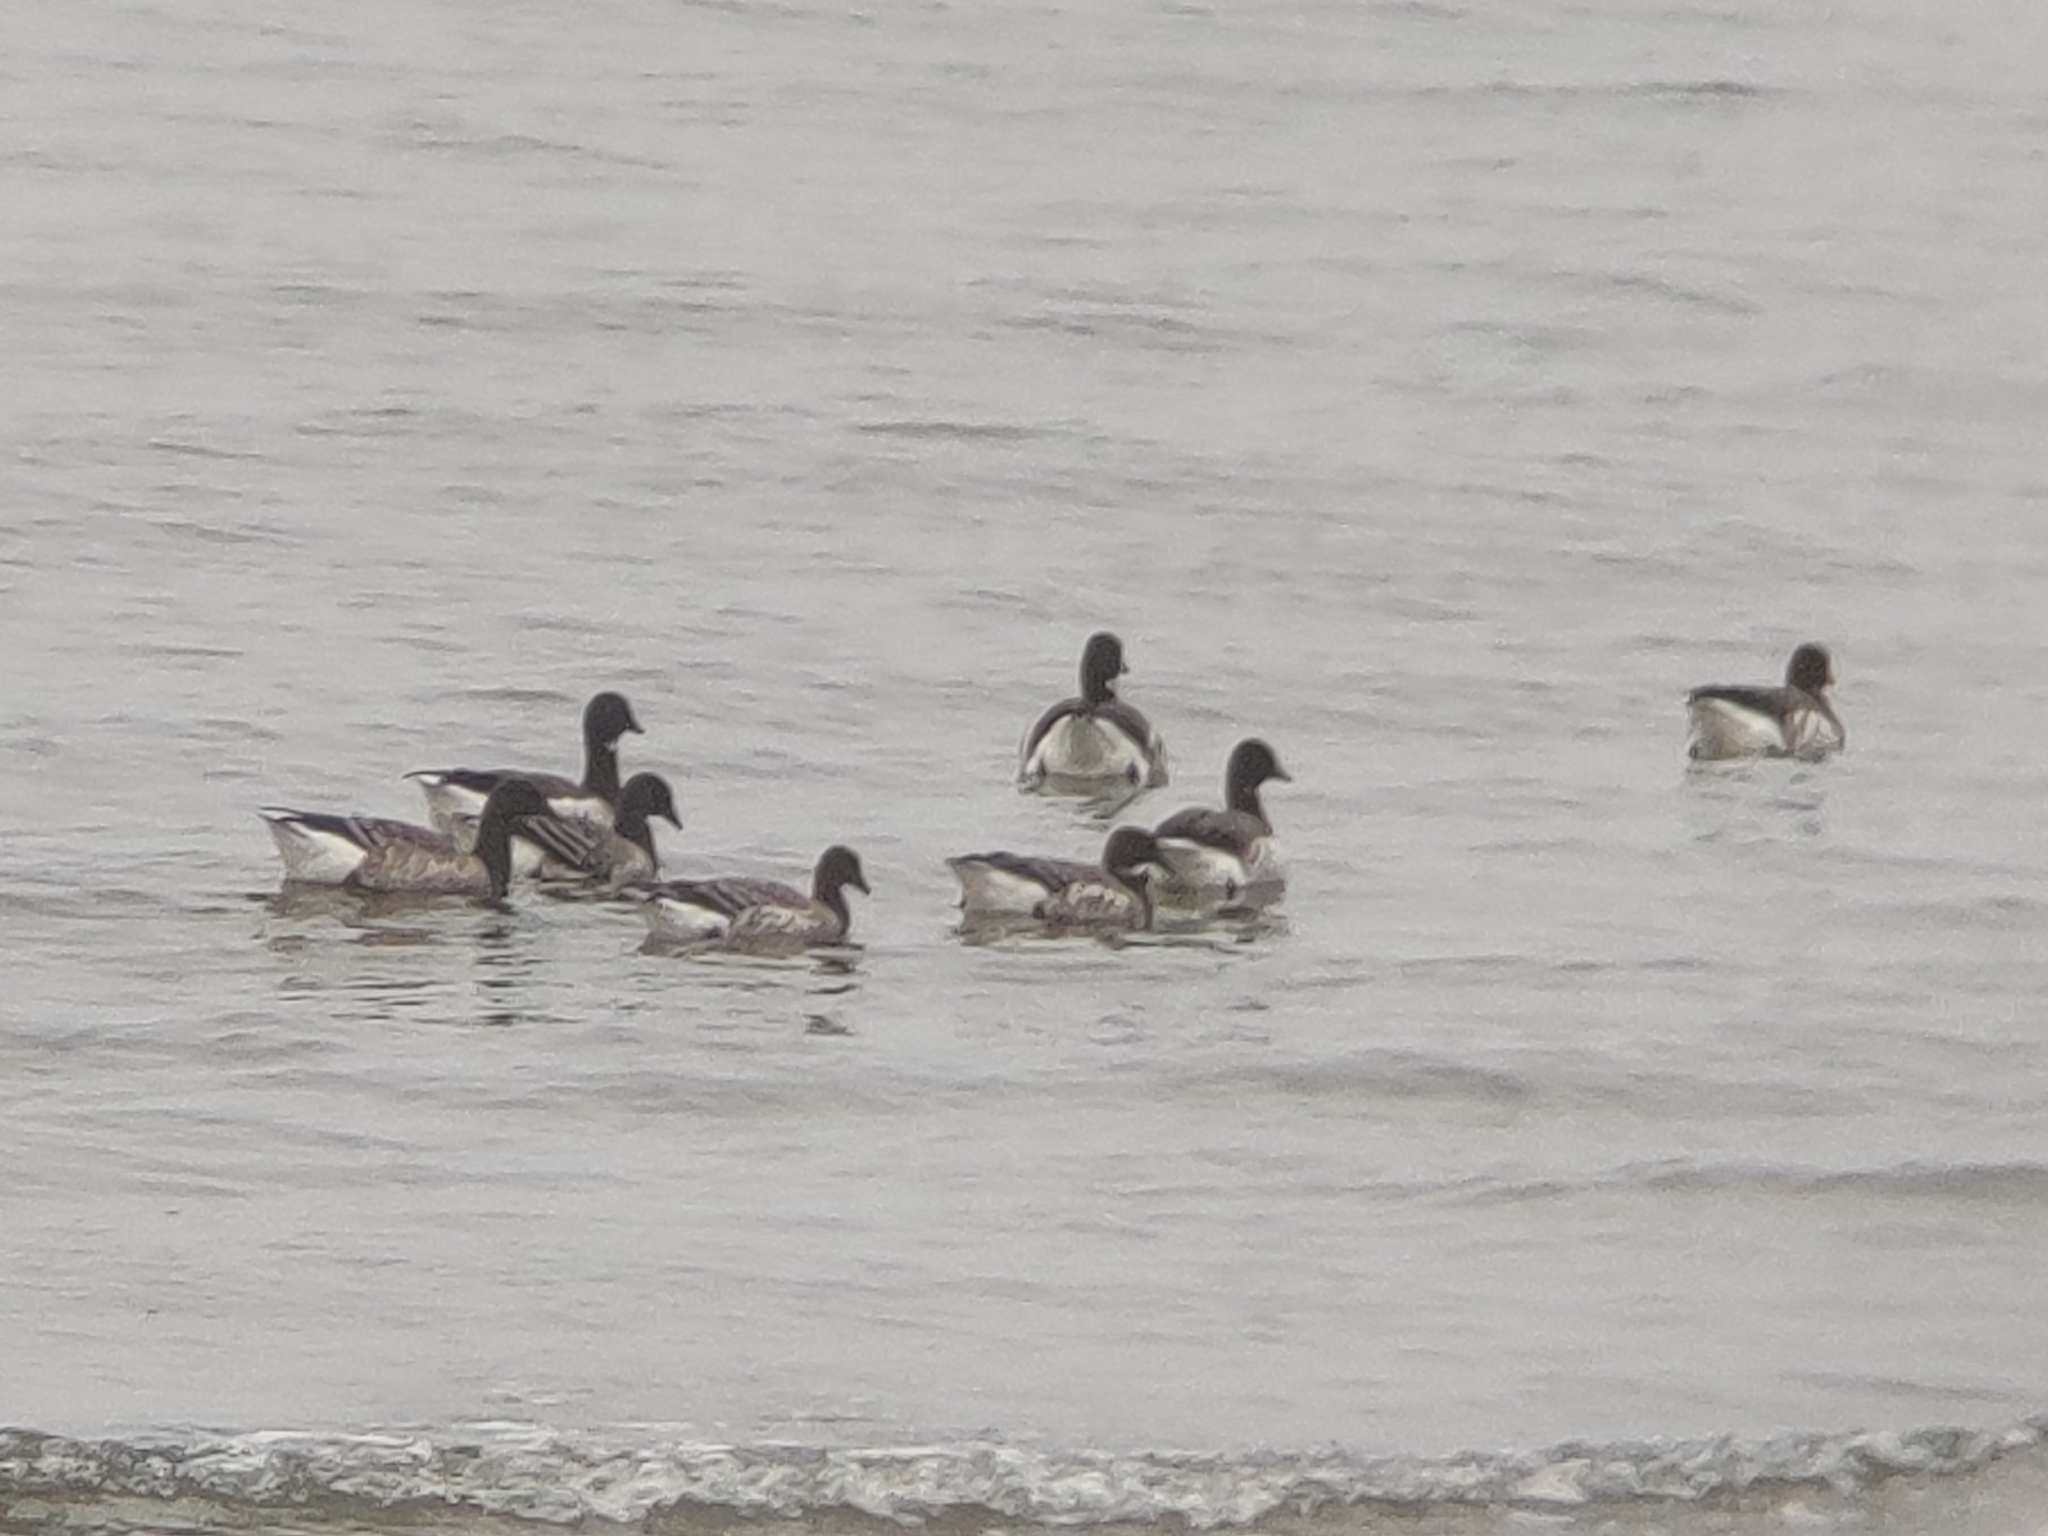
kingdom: Animalia
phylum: Chordata
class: Aves
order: Anseriformes
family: Anatidae
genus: Branta
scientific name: Branta bernicla
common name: Brant goose
